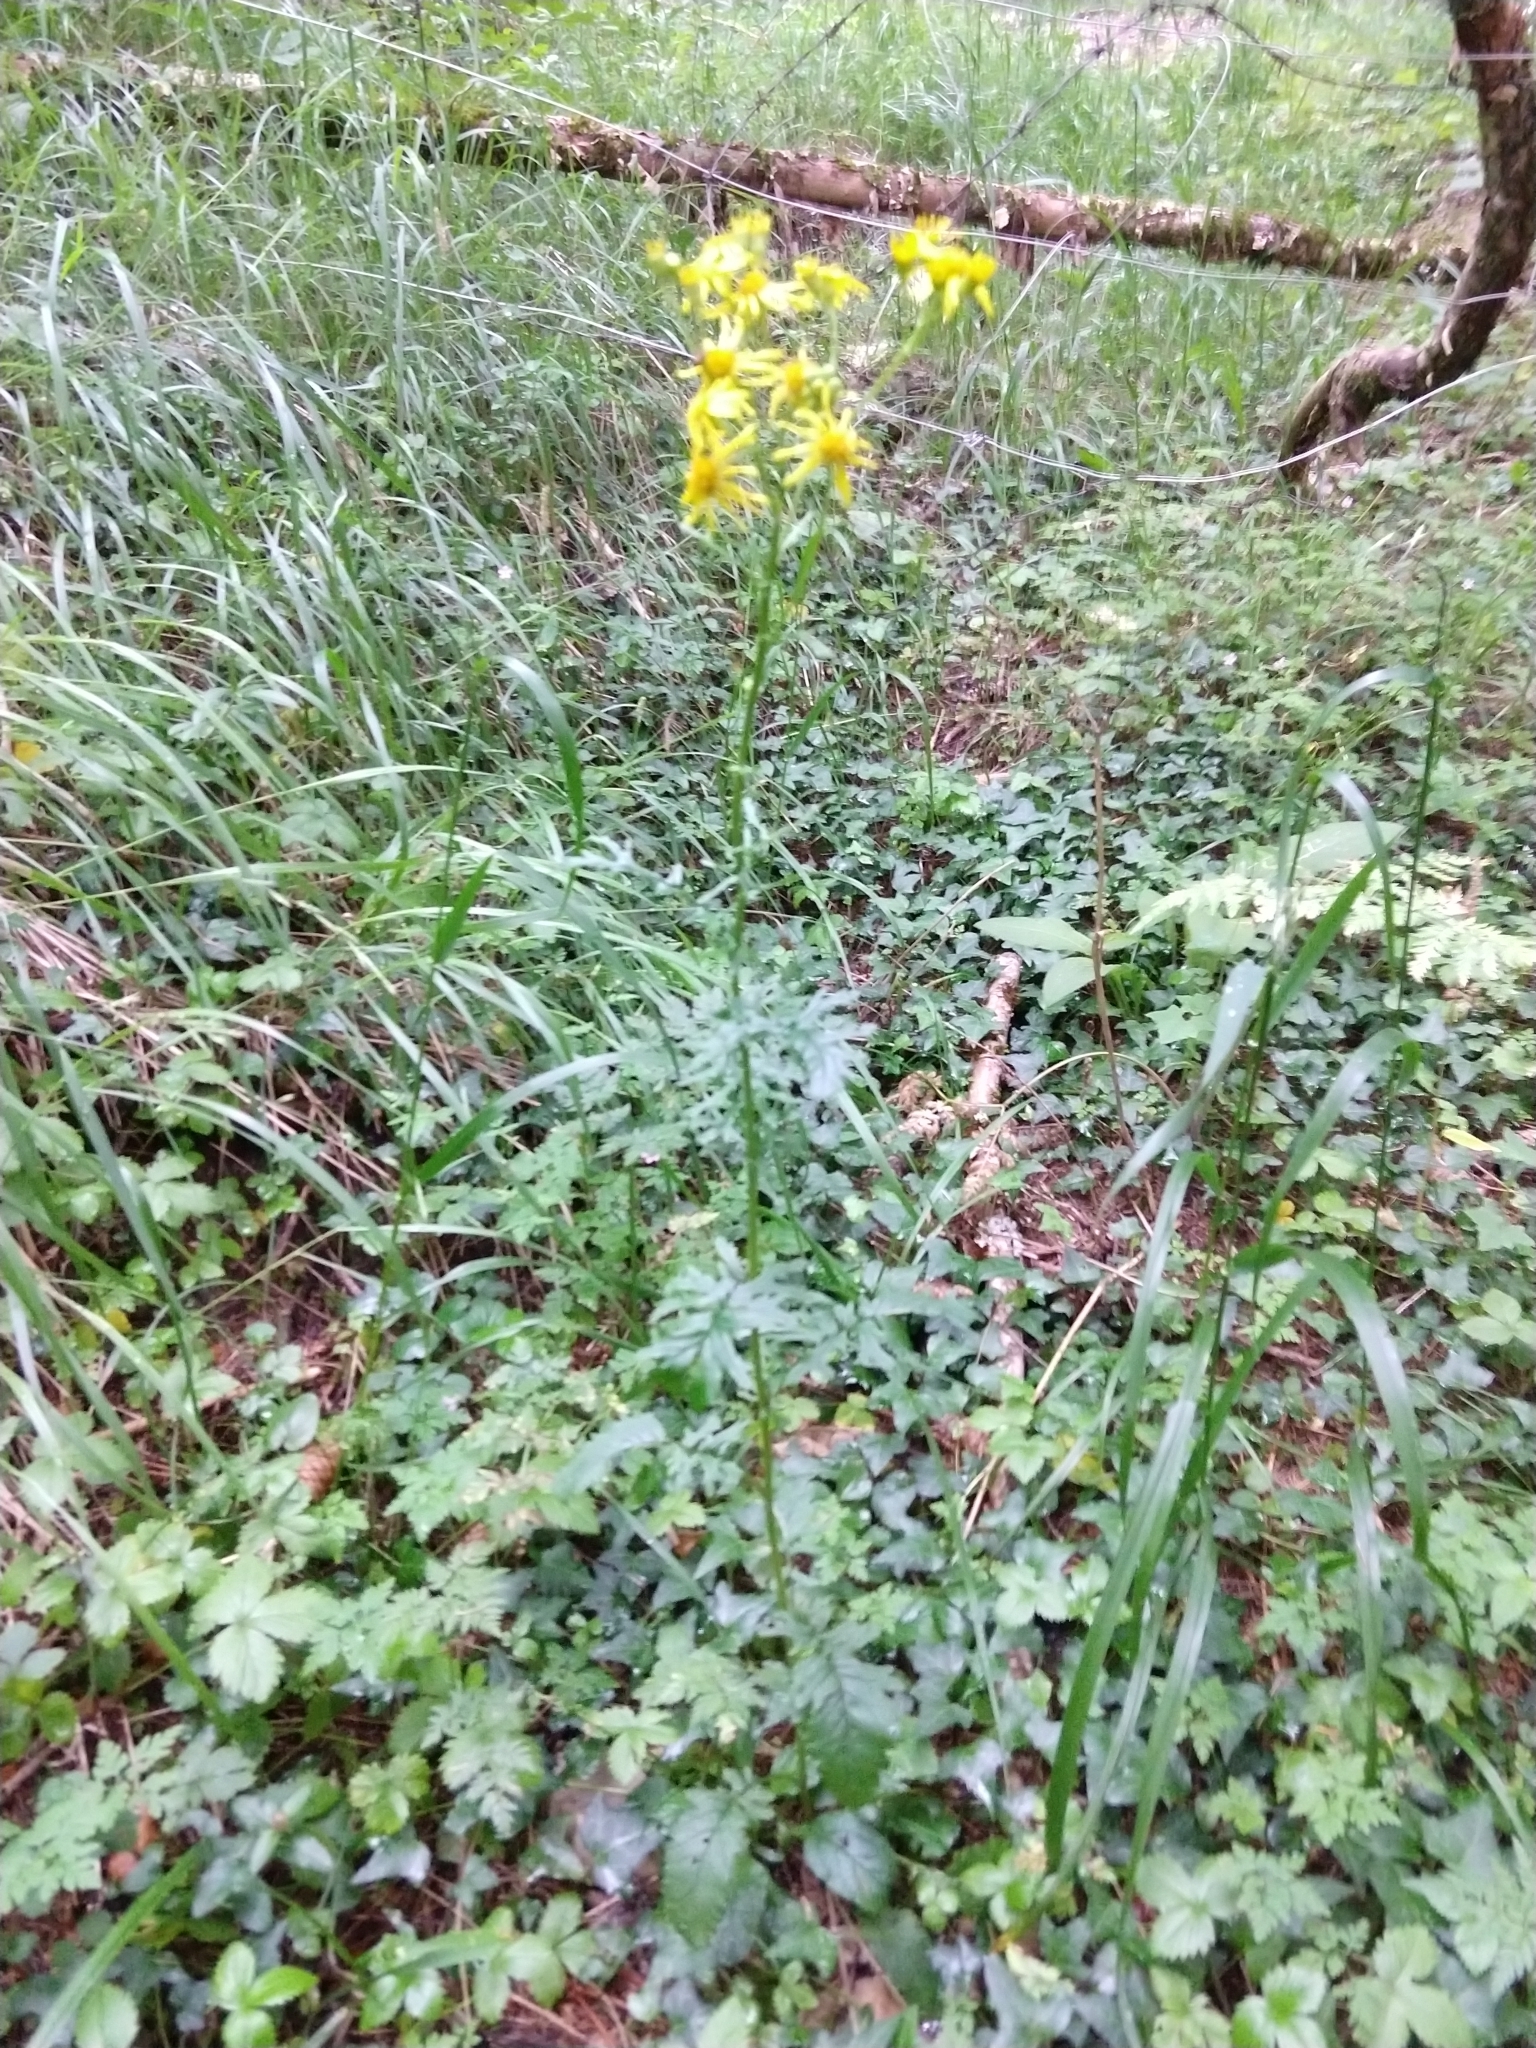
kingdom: Plantae
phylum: Tracheophyta
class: Magnoliopsida
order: Asterales
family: Asteraceae
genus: Jacobaea
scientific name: Jacobaea vulgaris
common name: Stinking willie
